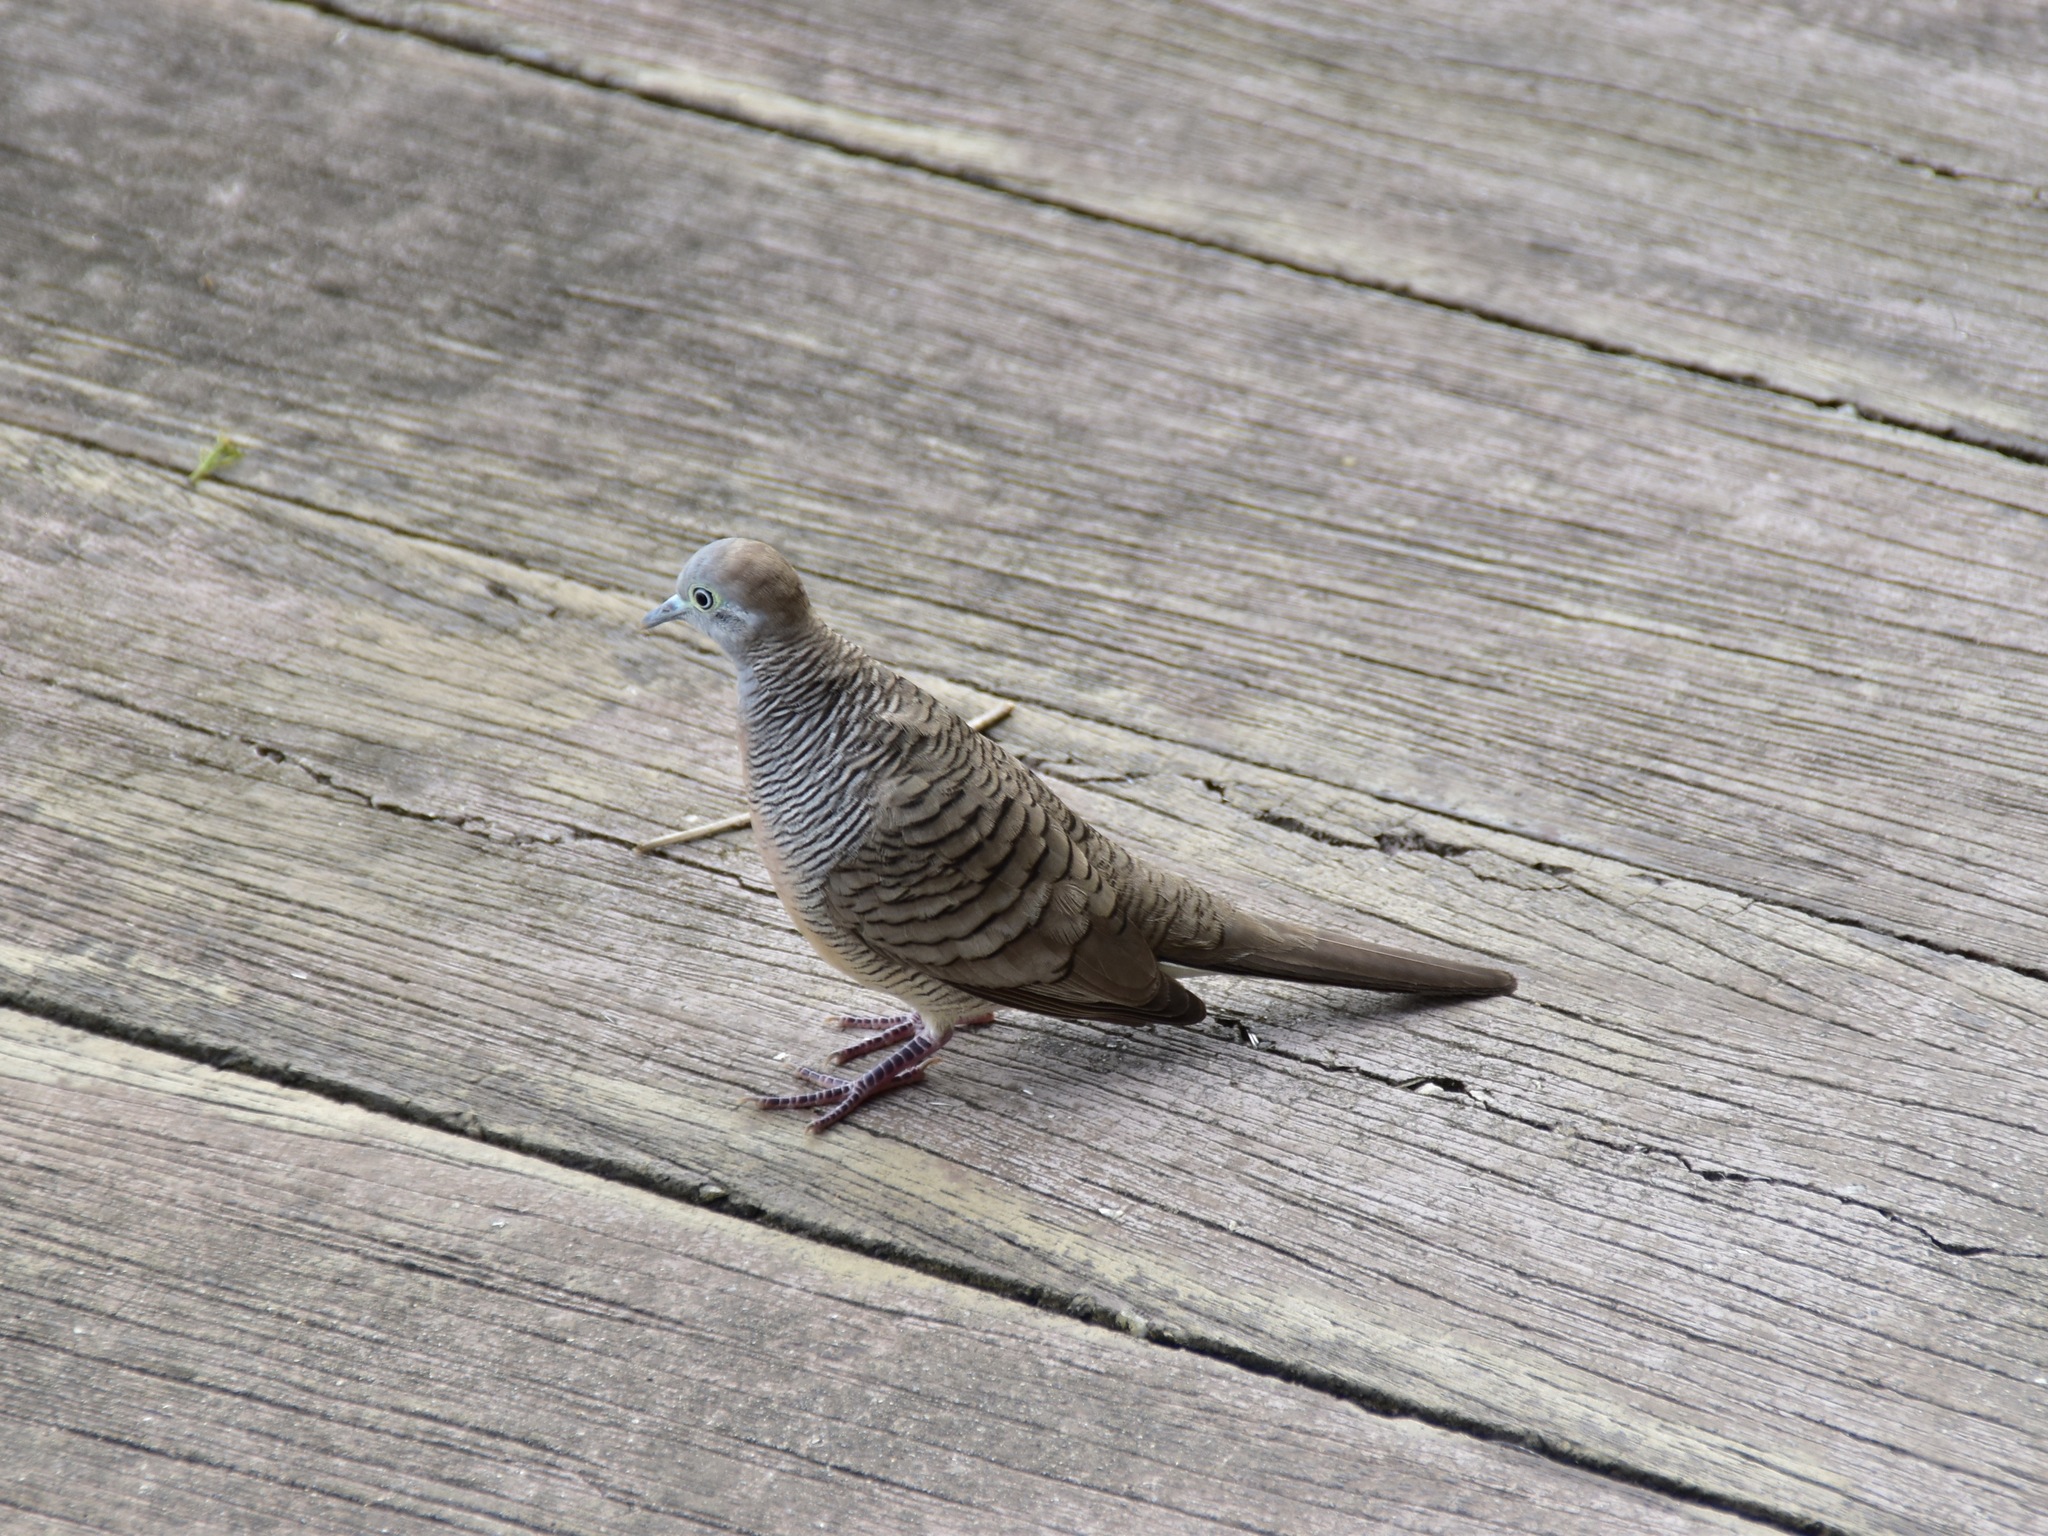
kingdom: Animalia
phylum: Chordata
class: Aves
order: Columbiformes
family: Columbidae
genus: Geopelia
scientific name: Geopelia striata
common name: Zebra dove
